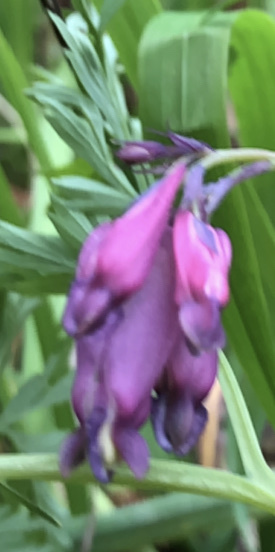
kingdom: Plantae
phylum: Tracheophyta
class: Magnoliopsida
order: Ranunculales
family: Papaveraceae
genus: Dicentra
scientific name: Dicentra formosa
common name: Bleeding-heart
